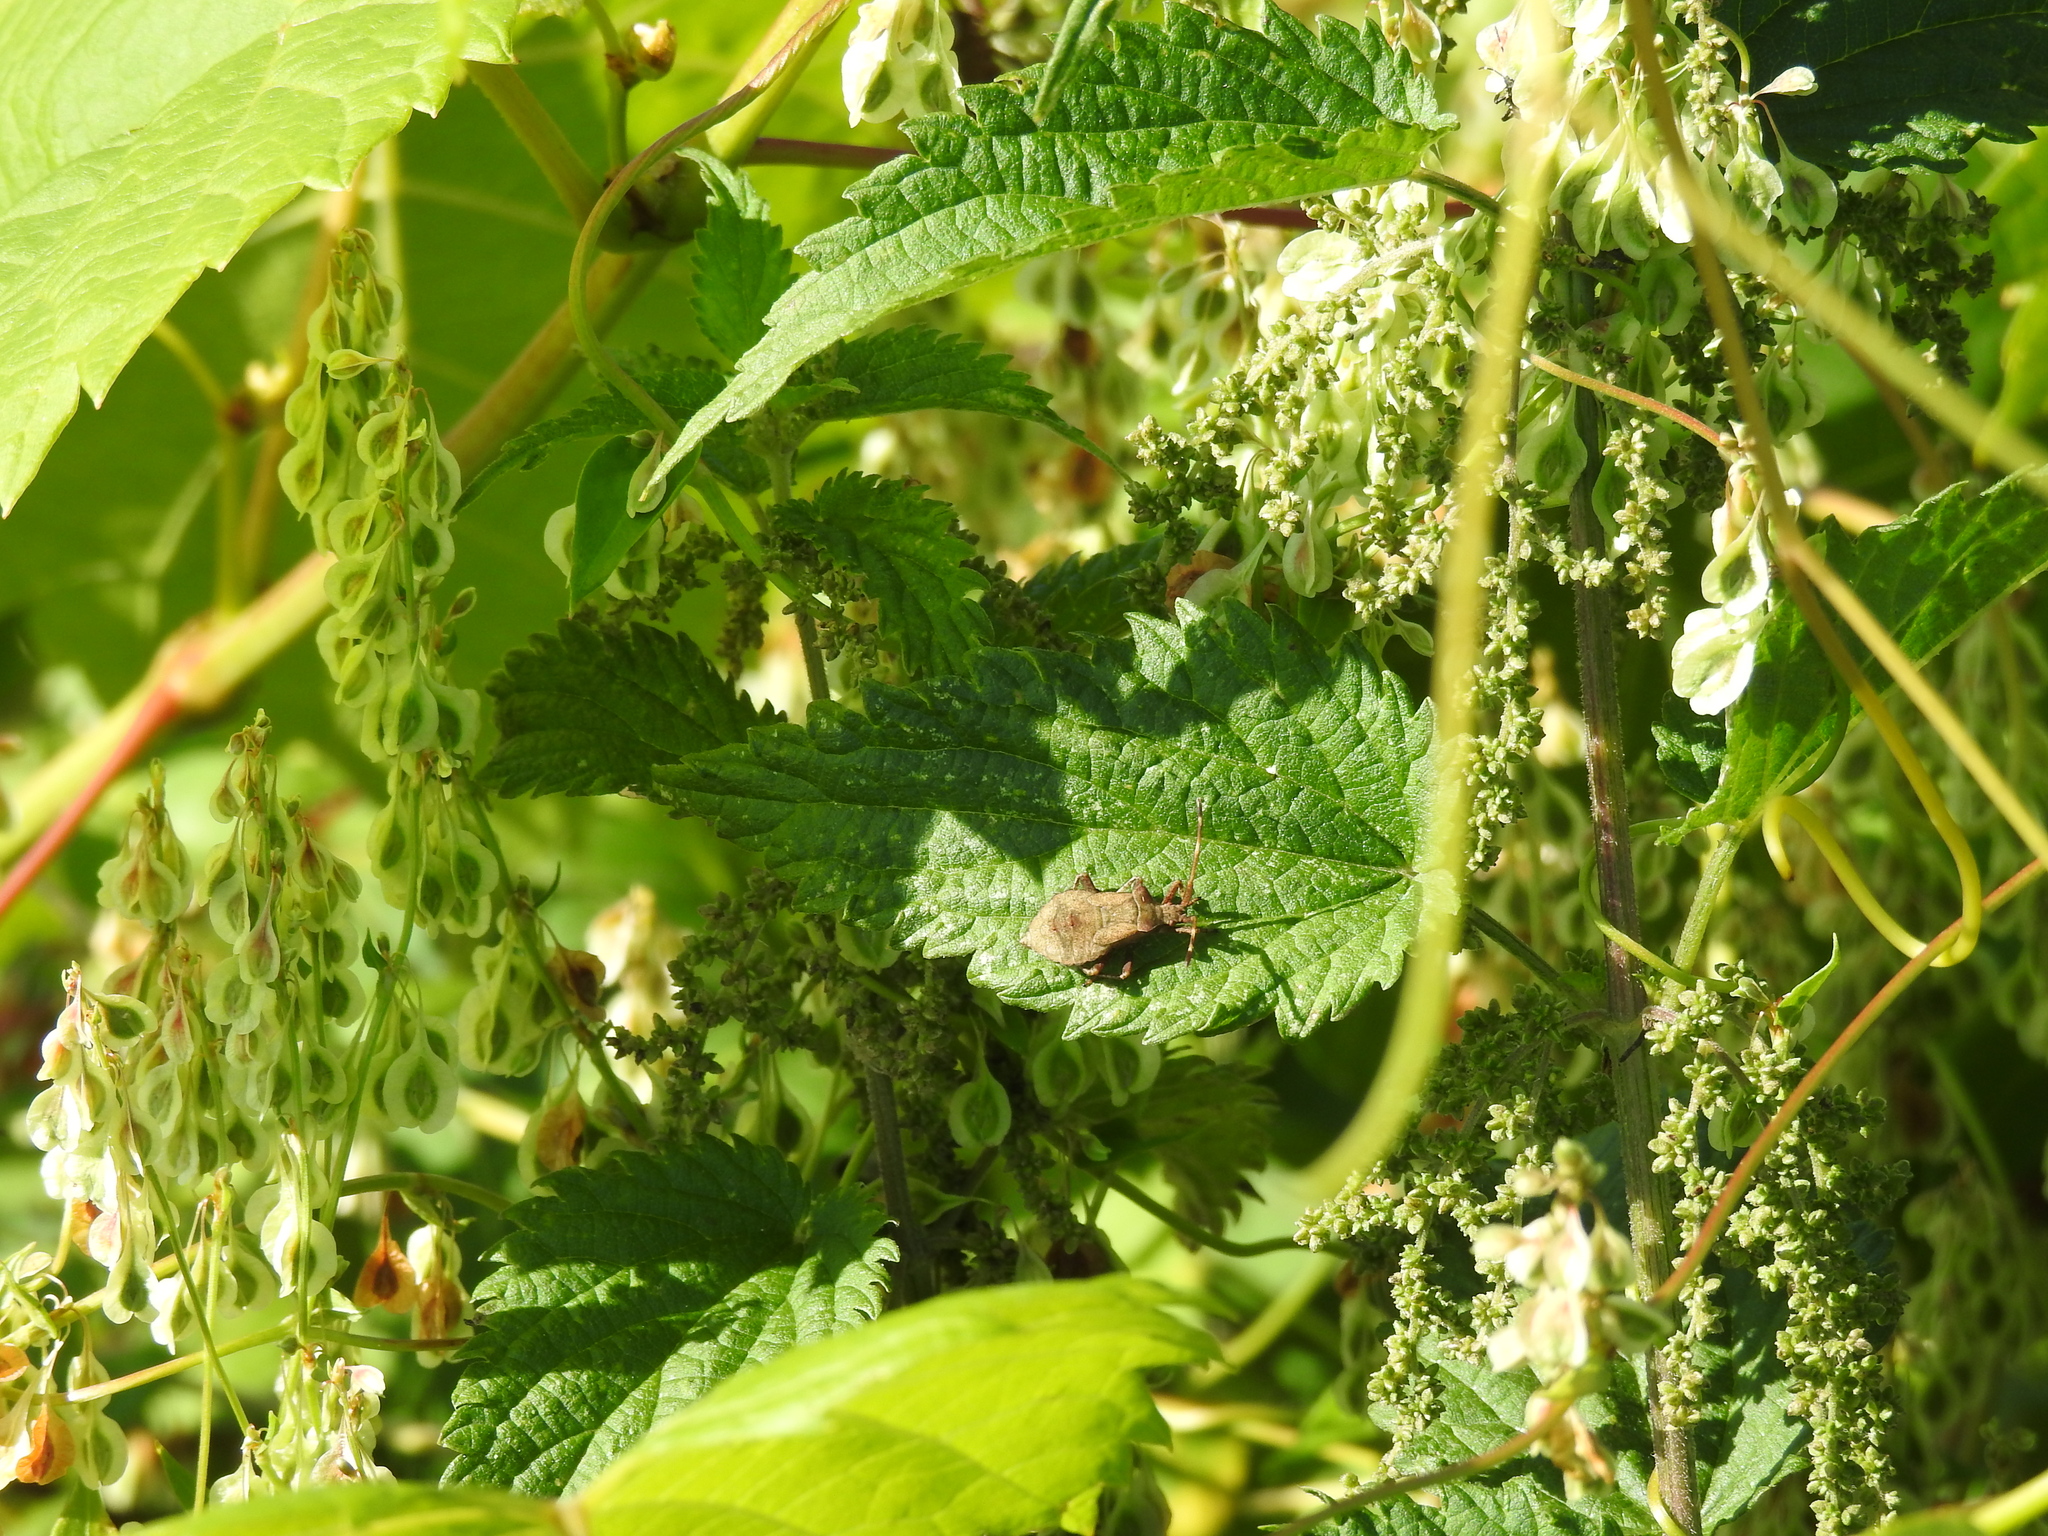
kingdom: Animalia
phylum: Arthropoda
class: Insecta
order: Hemiptera
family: Coreidae
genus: Coreus
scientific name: Coreus marginatus
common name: Dock bug
